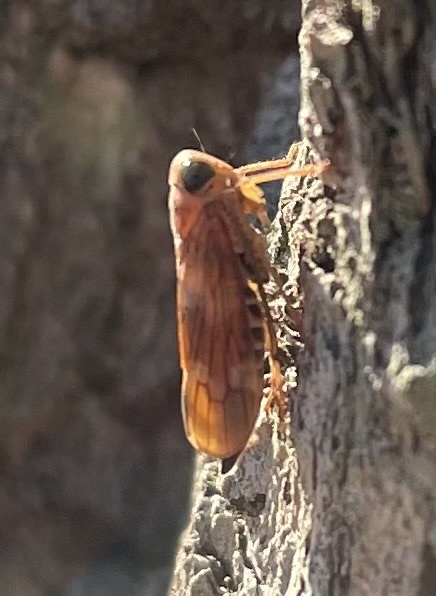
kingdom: Animalia
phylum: Arthropoda
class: Insecta
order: Hemiptera
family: Cicadellidae
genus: Jikradia
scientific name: Jikradia olitoria
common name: Coppery leafhopper
